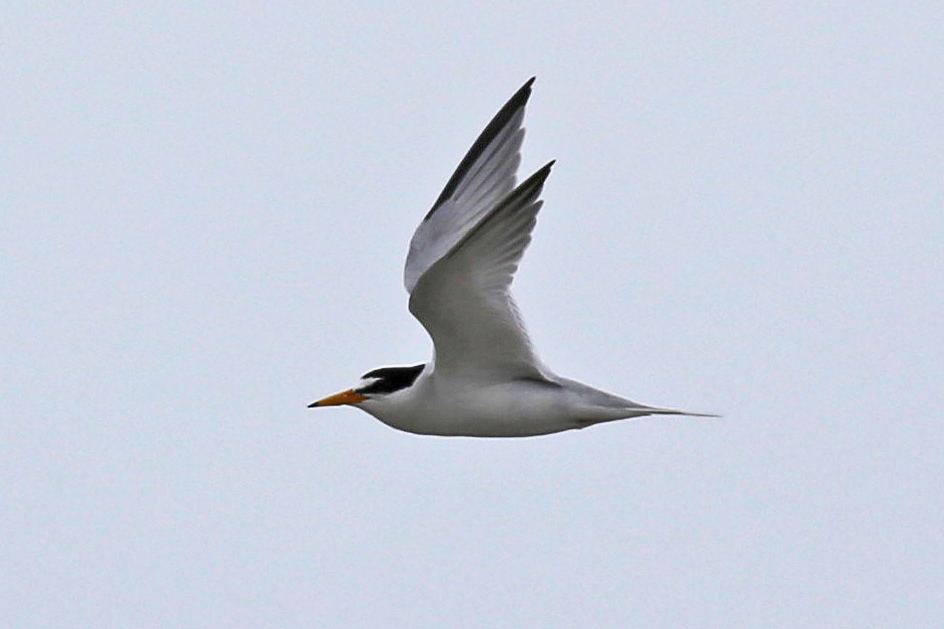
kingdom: Animalia
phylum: Chordata
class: Aves
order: Charadriiformes
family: Laridae
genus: Sternula
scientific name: Sternula antillarum
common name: Least tern
